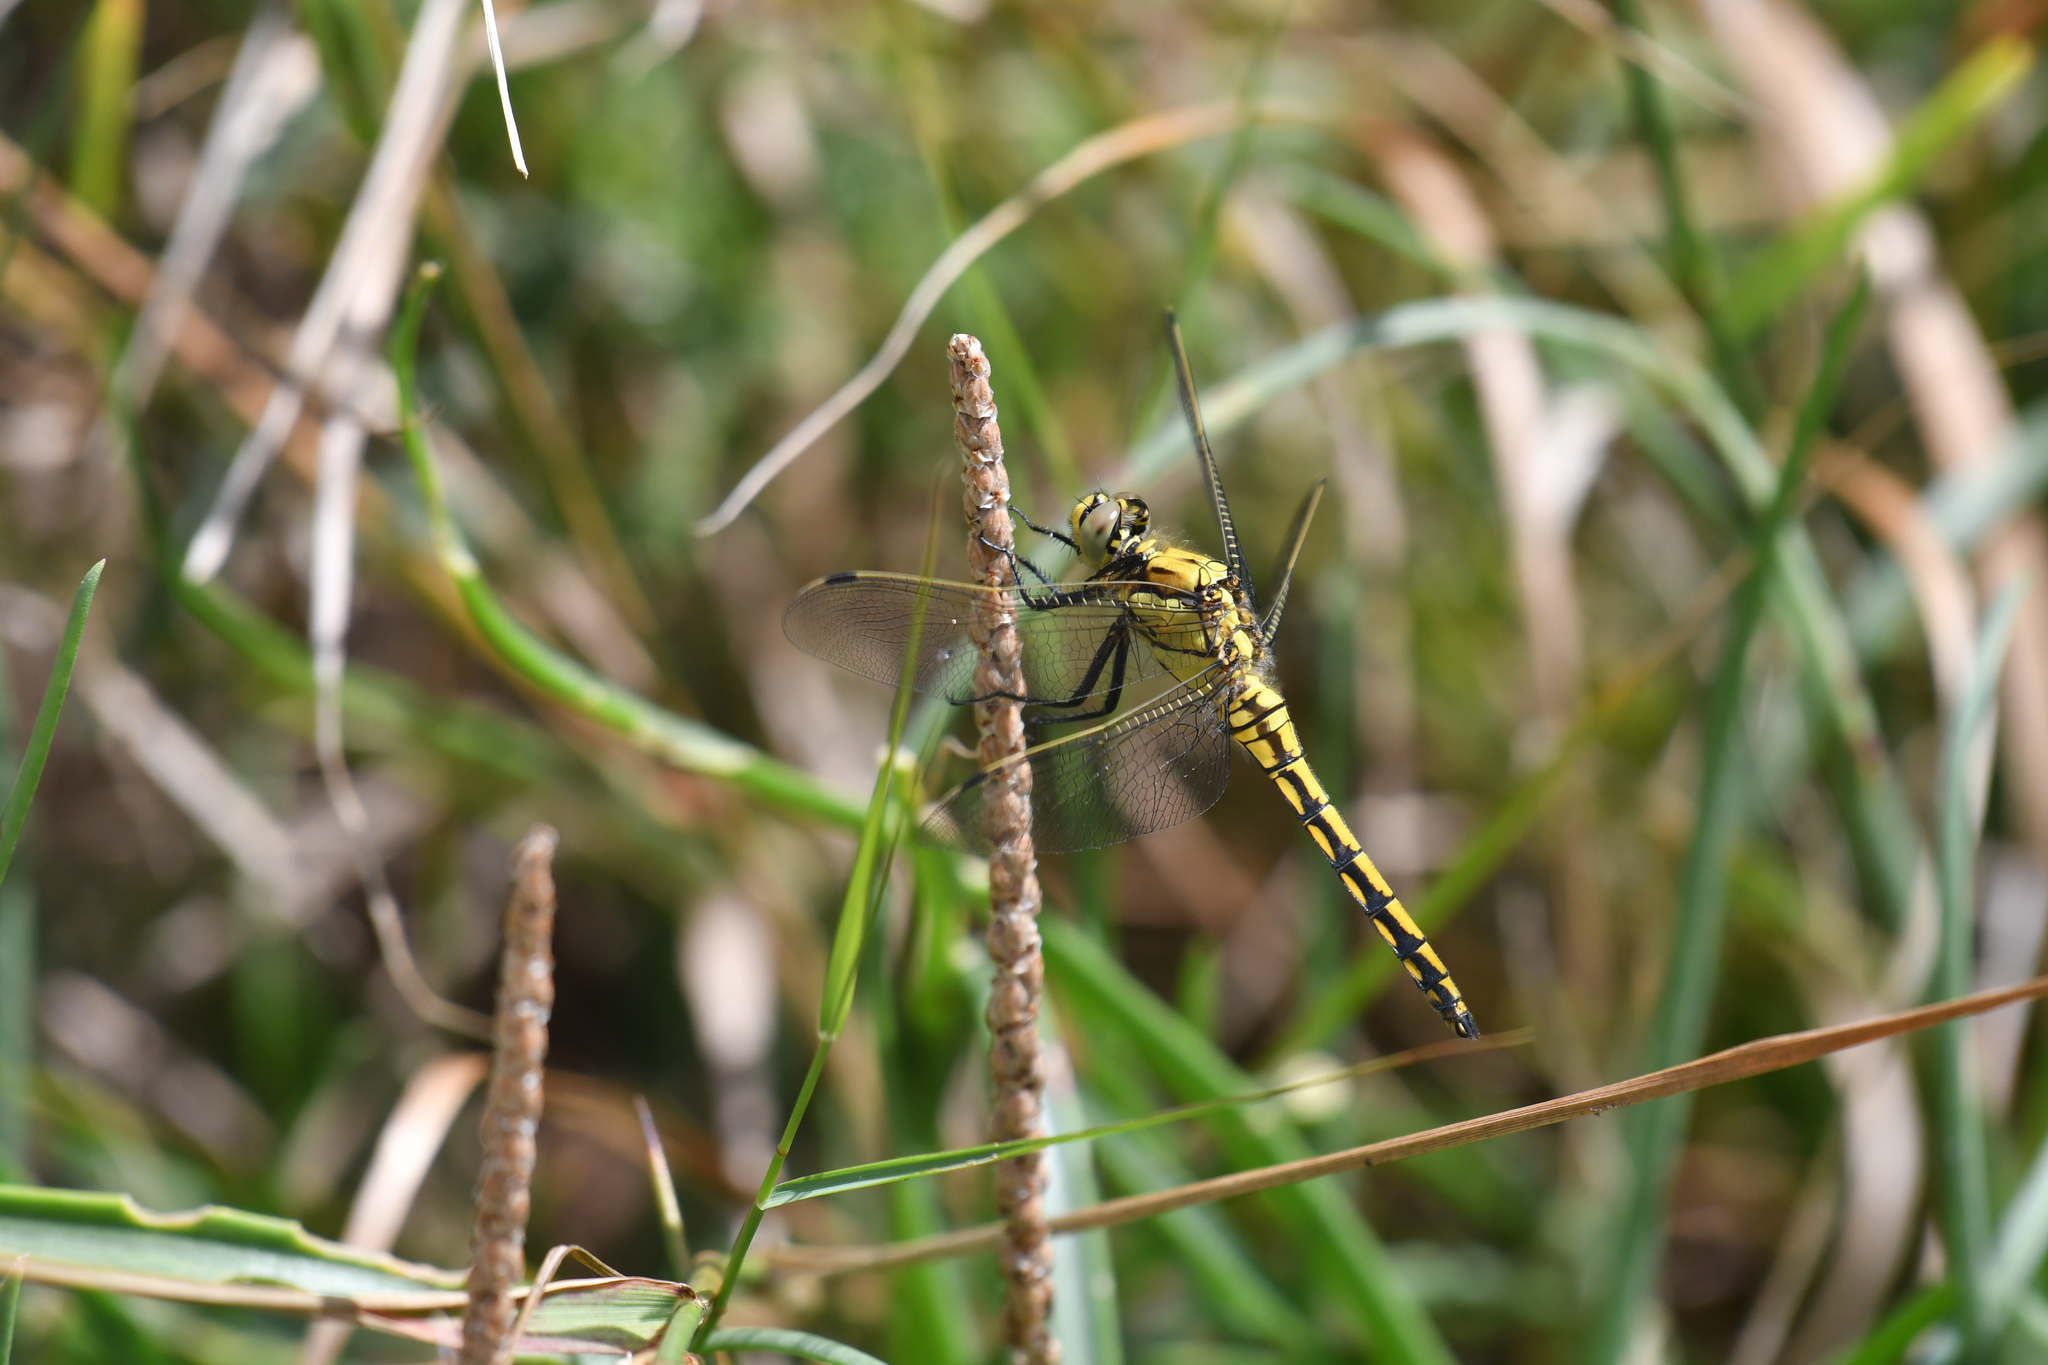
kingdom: Animalia
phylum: Arthropoda
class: Insecta
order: Odonata
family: Libellulidae
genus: Orthetrum
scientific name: Orthetrum cancellatum
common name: Black-tailed skimmer
